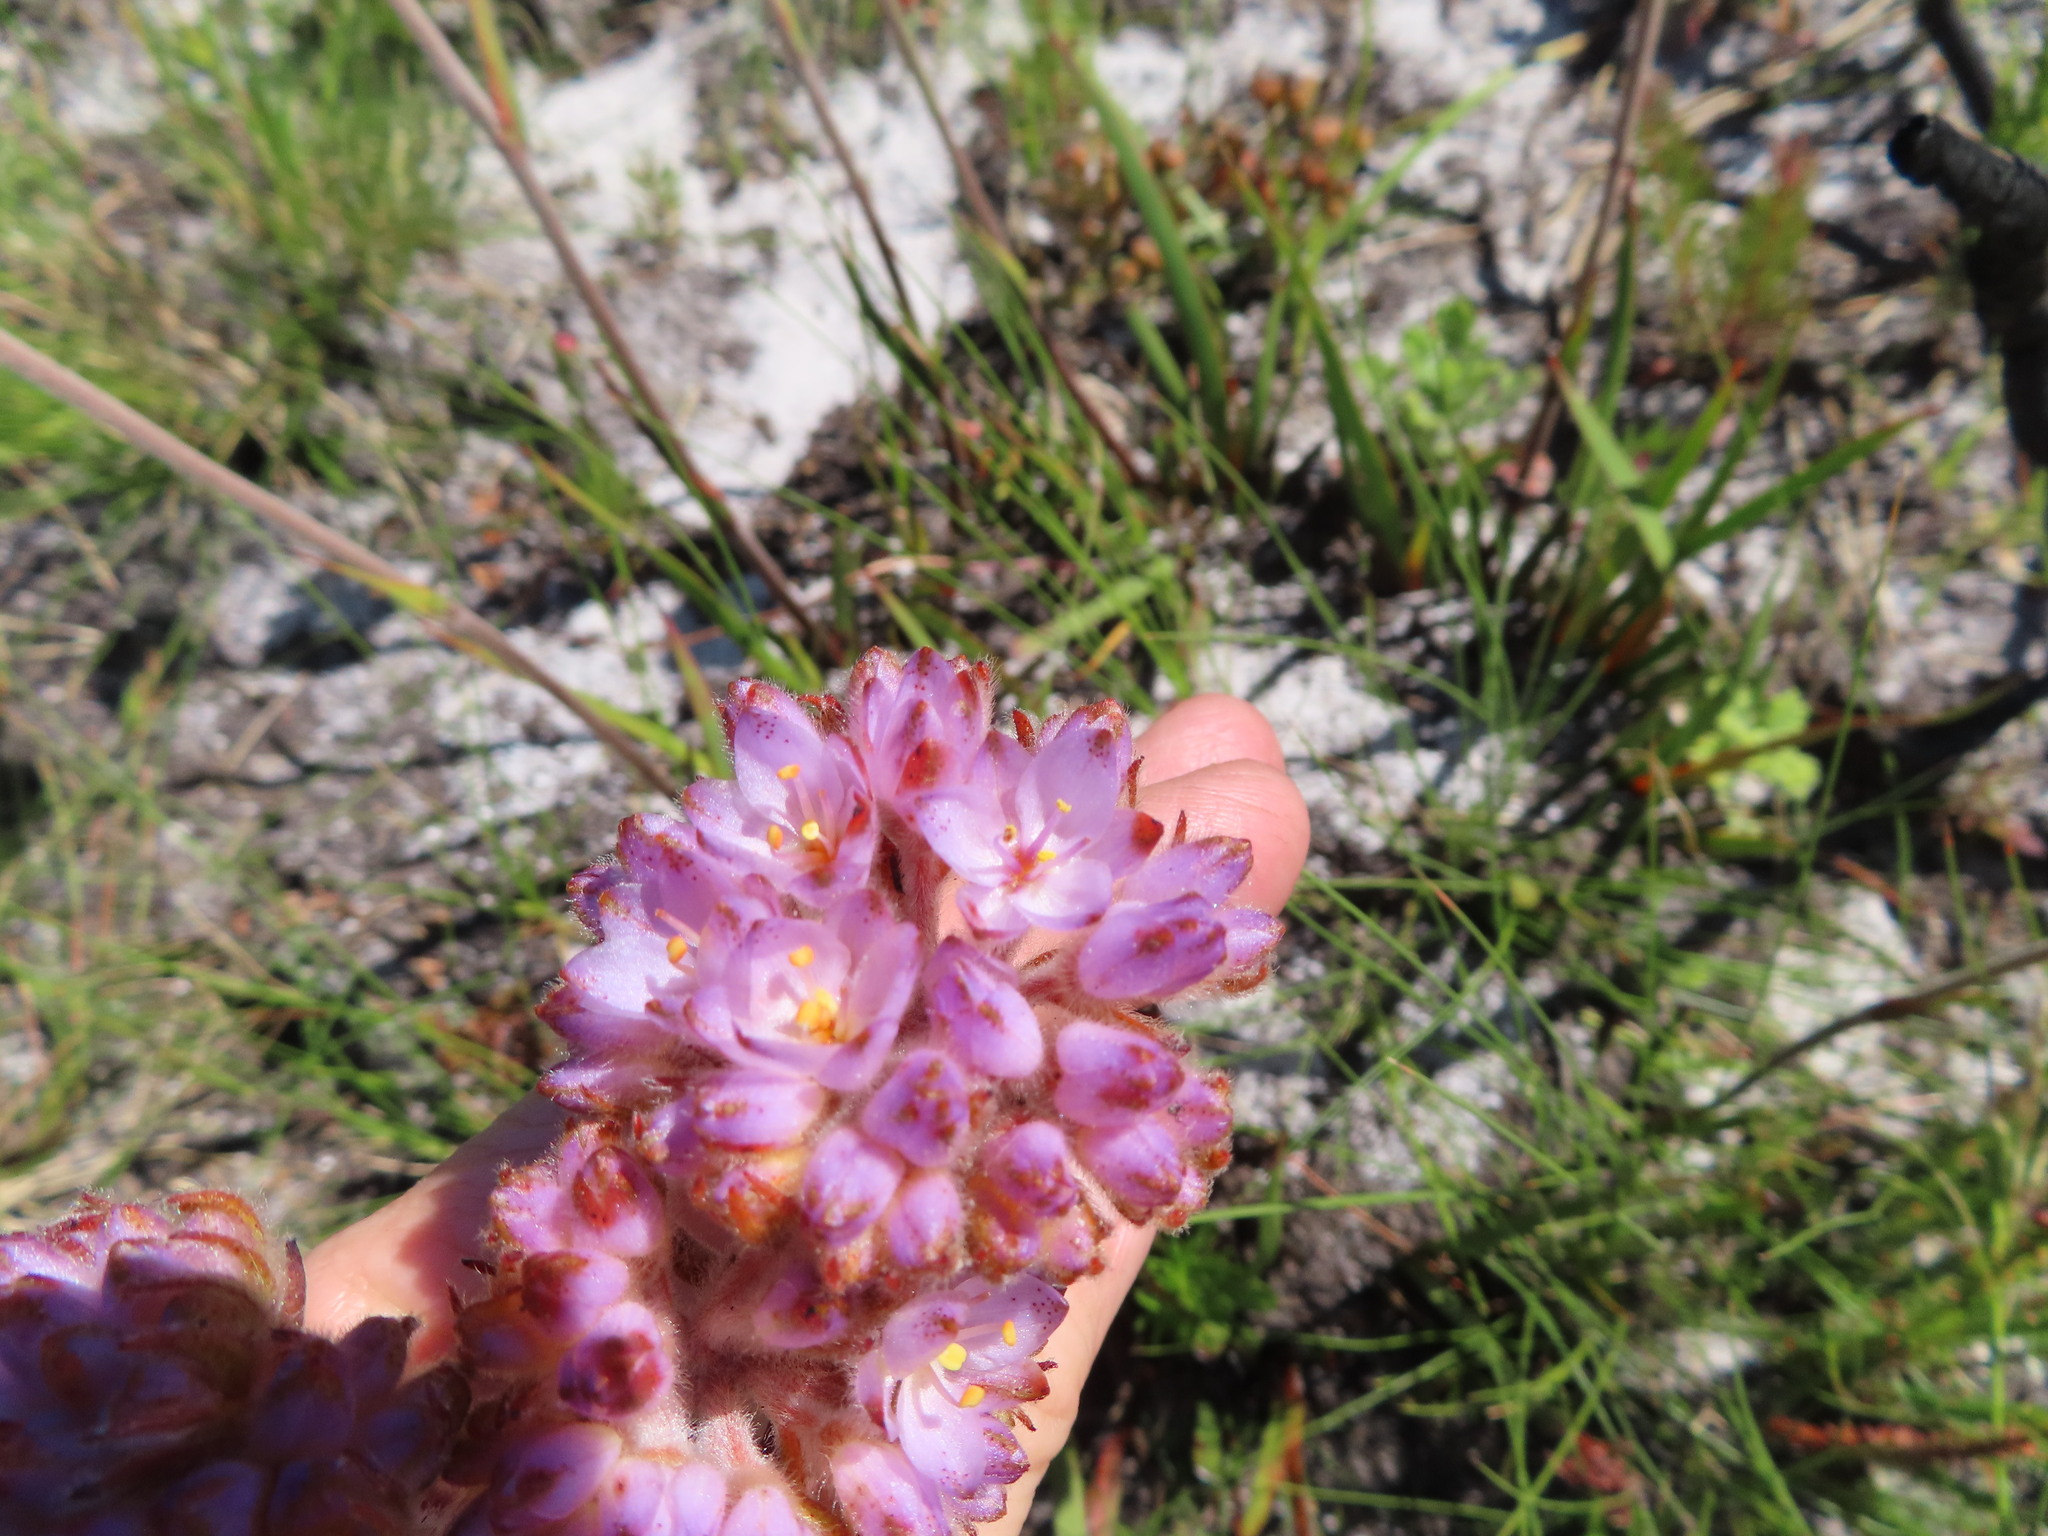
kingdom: Plantae
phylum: Tracheophyta
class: Liliopsida
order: Commelinales
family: Haemodoraceae
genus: Dilatris
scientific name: Dilatris pillansii
